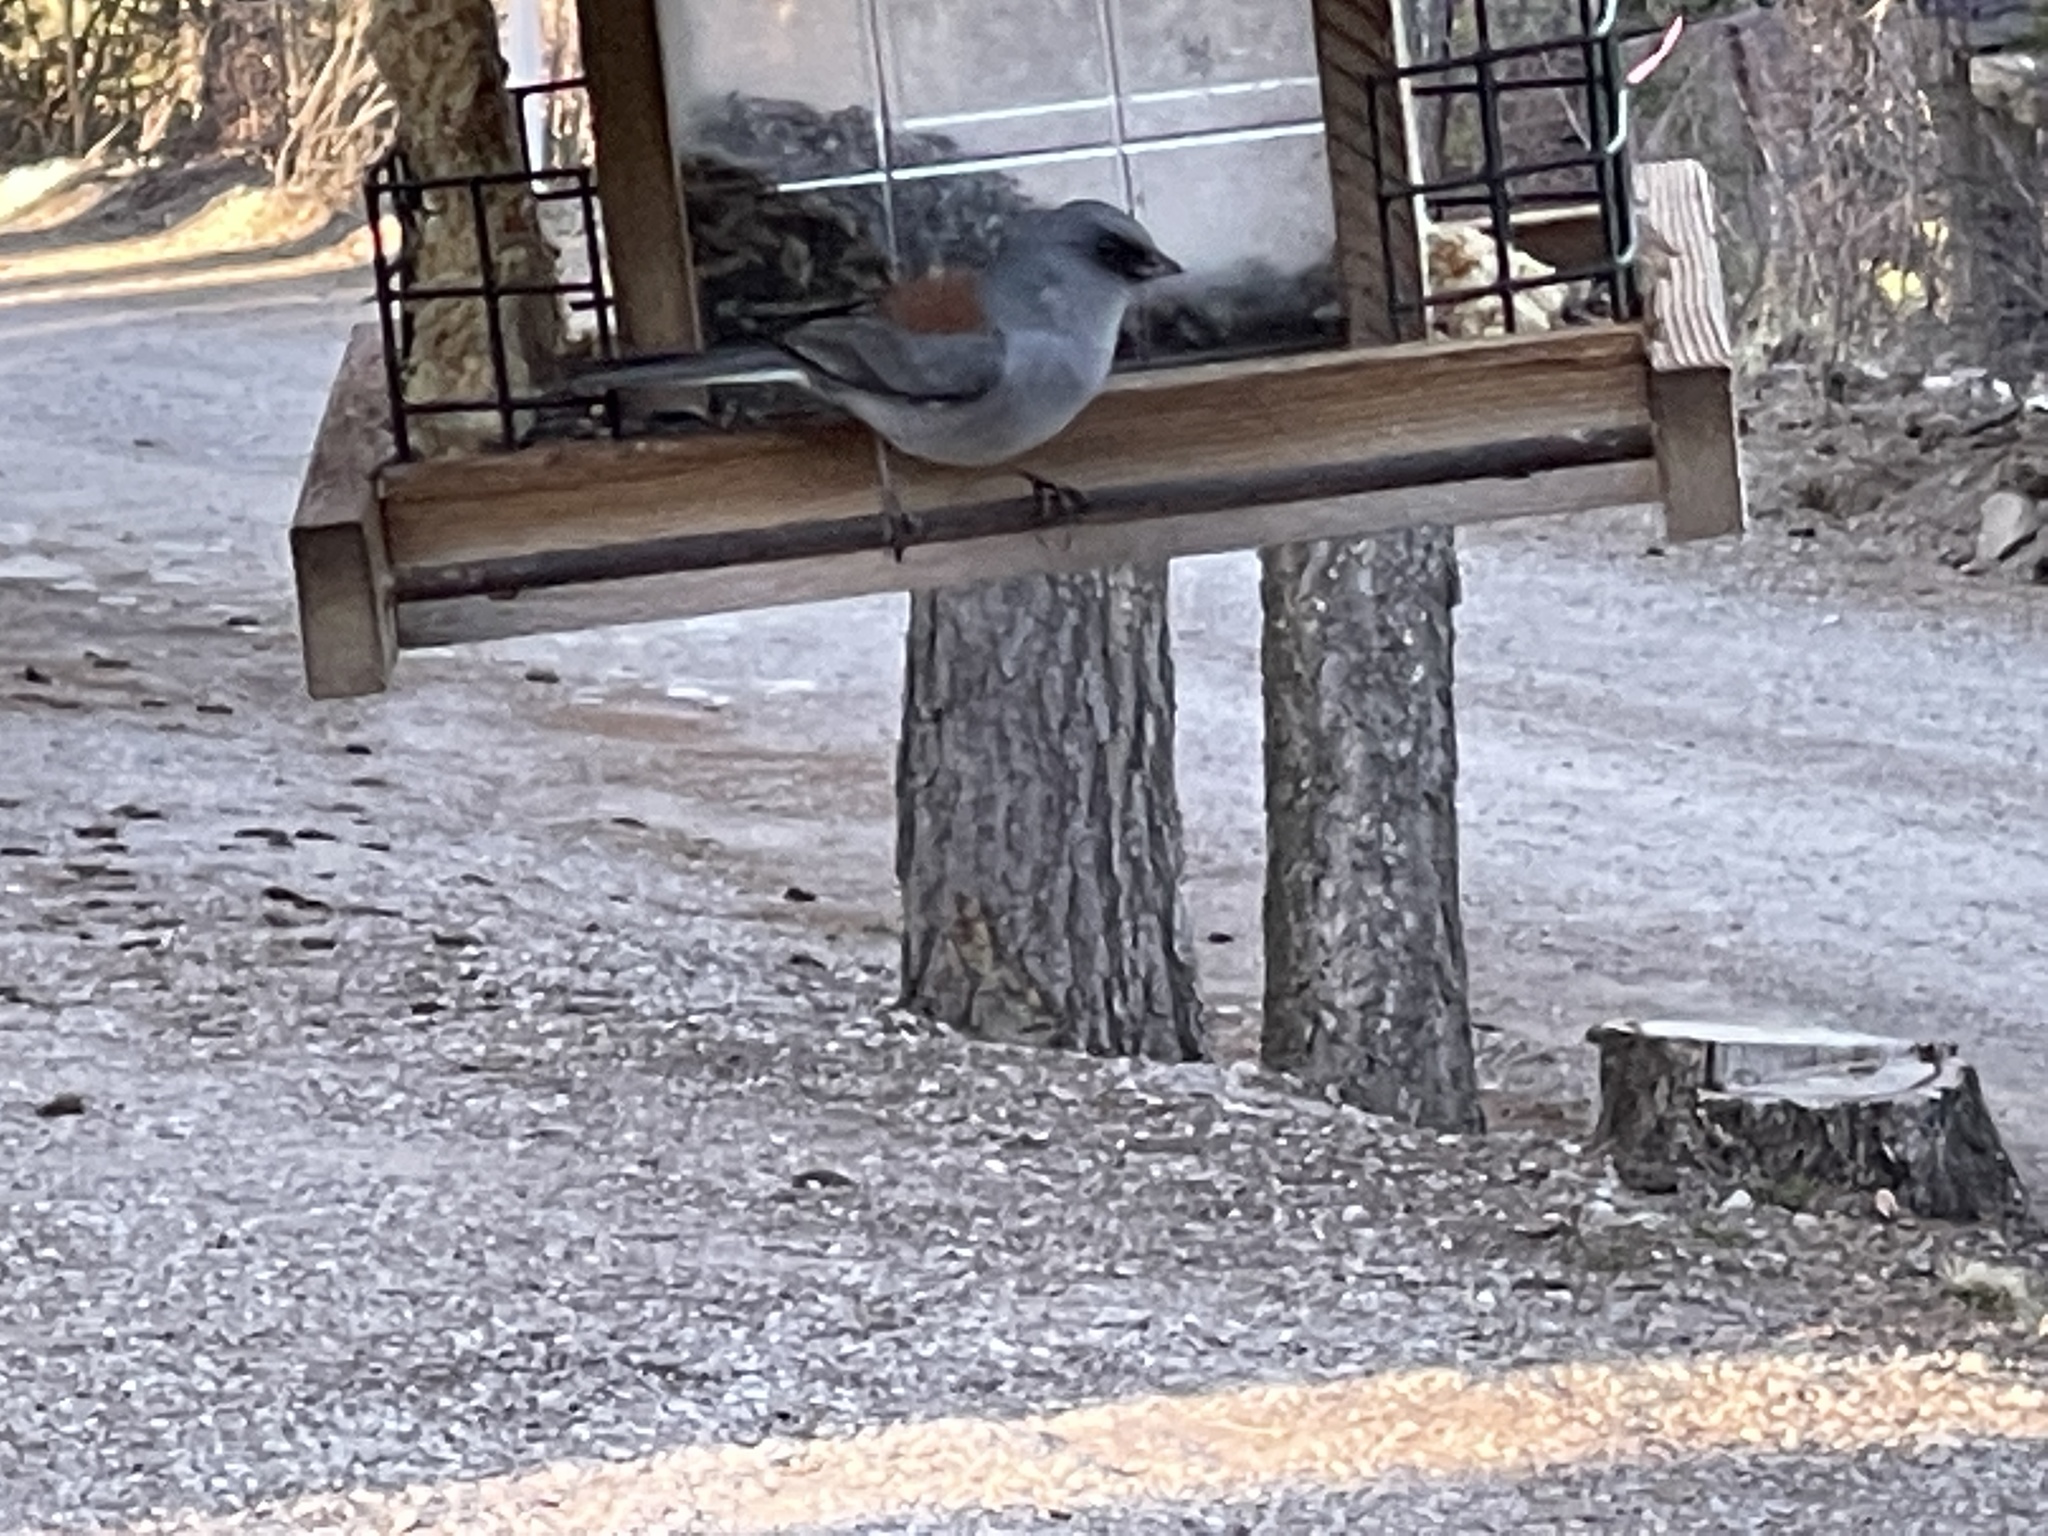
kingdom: Animalia
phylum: Chordata
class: Aves
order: Passeriformes
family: Passerellidae
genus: Junco
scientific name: Junco hyemalis
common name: Dark-eyed junco
